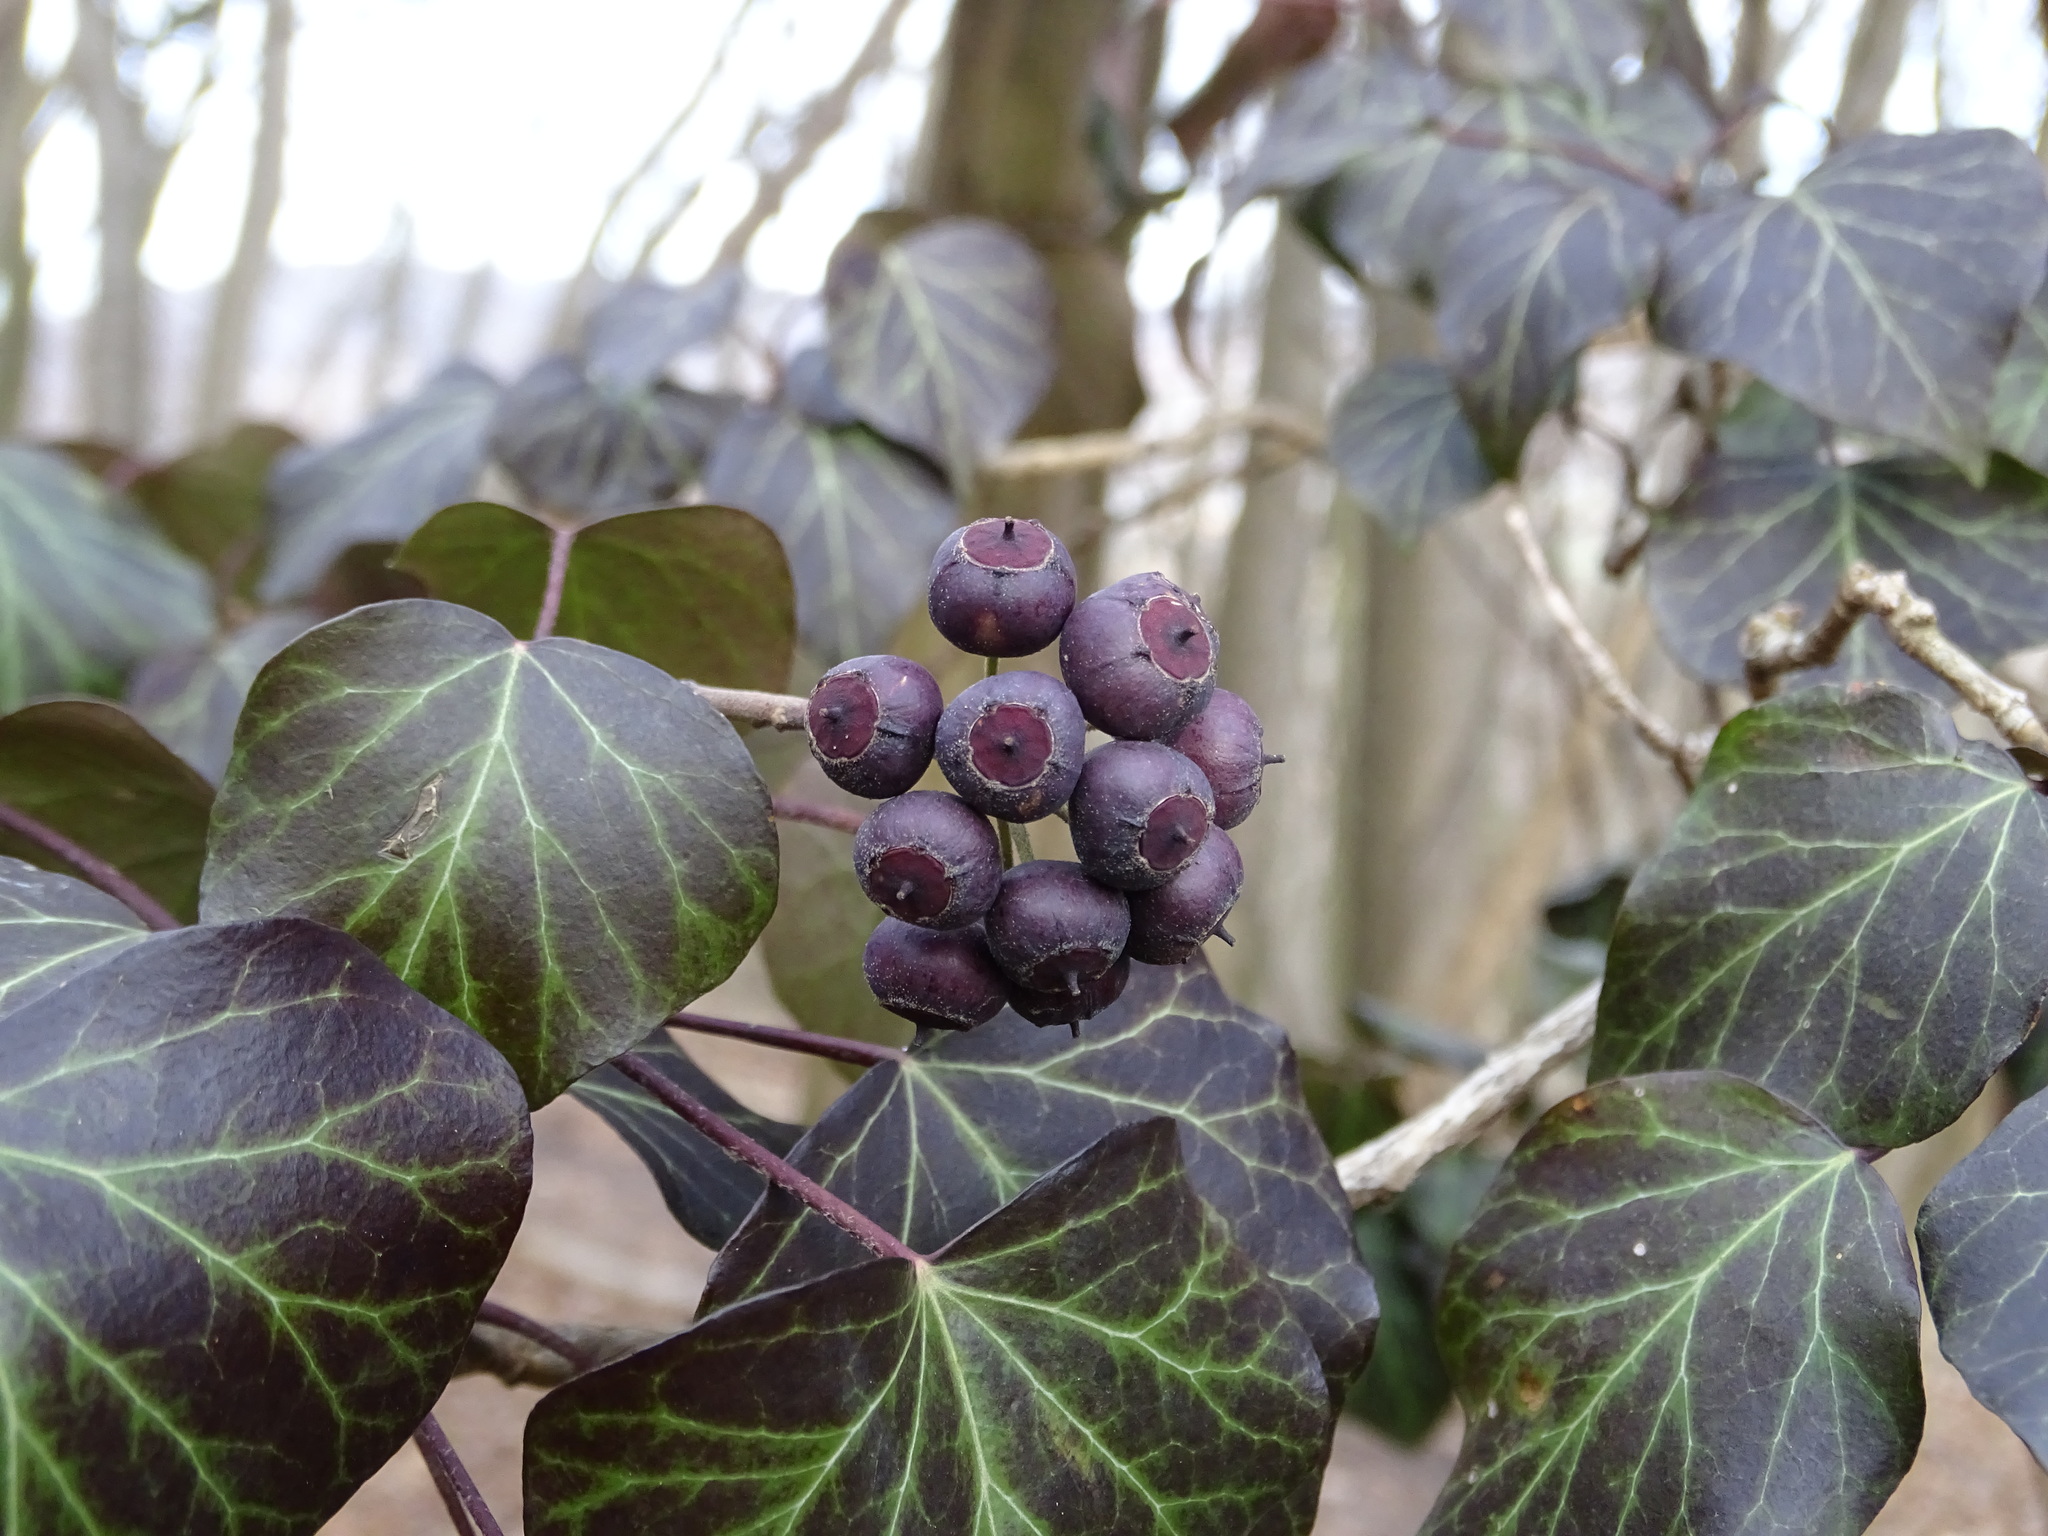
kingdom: Plantae
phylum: Tracheophyta
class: Magnoliopsida
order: Apiales
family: Araliaceae
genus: Hedera
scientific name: Hedera helix
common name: Ivy
